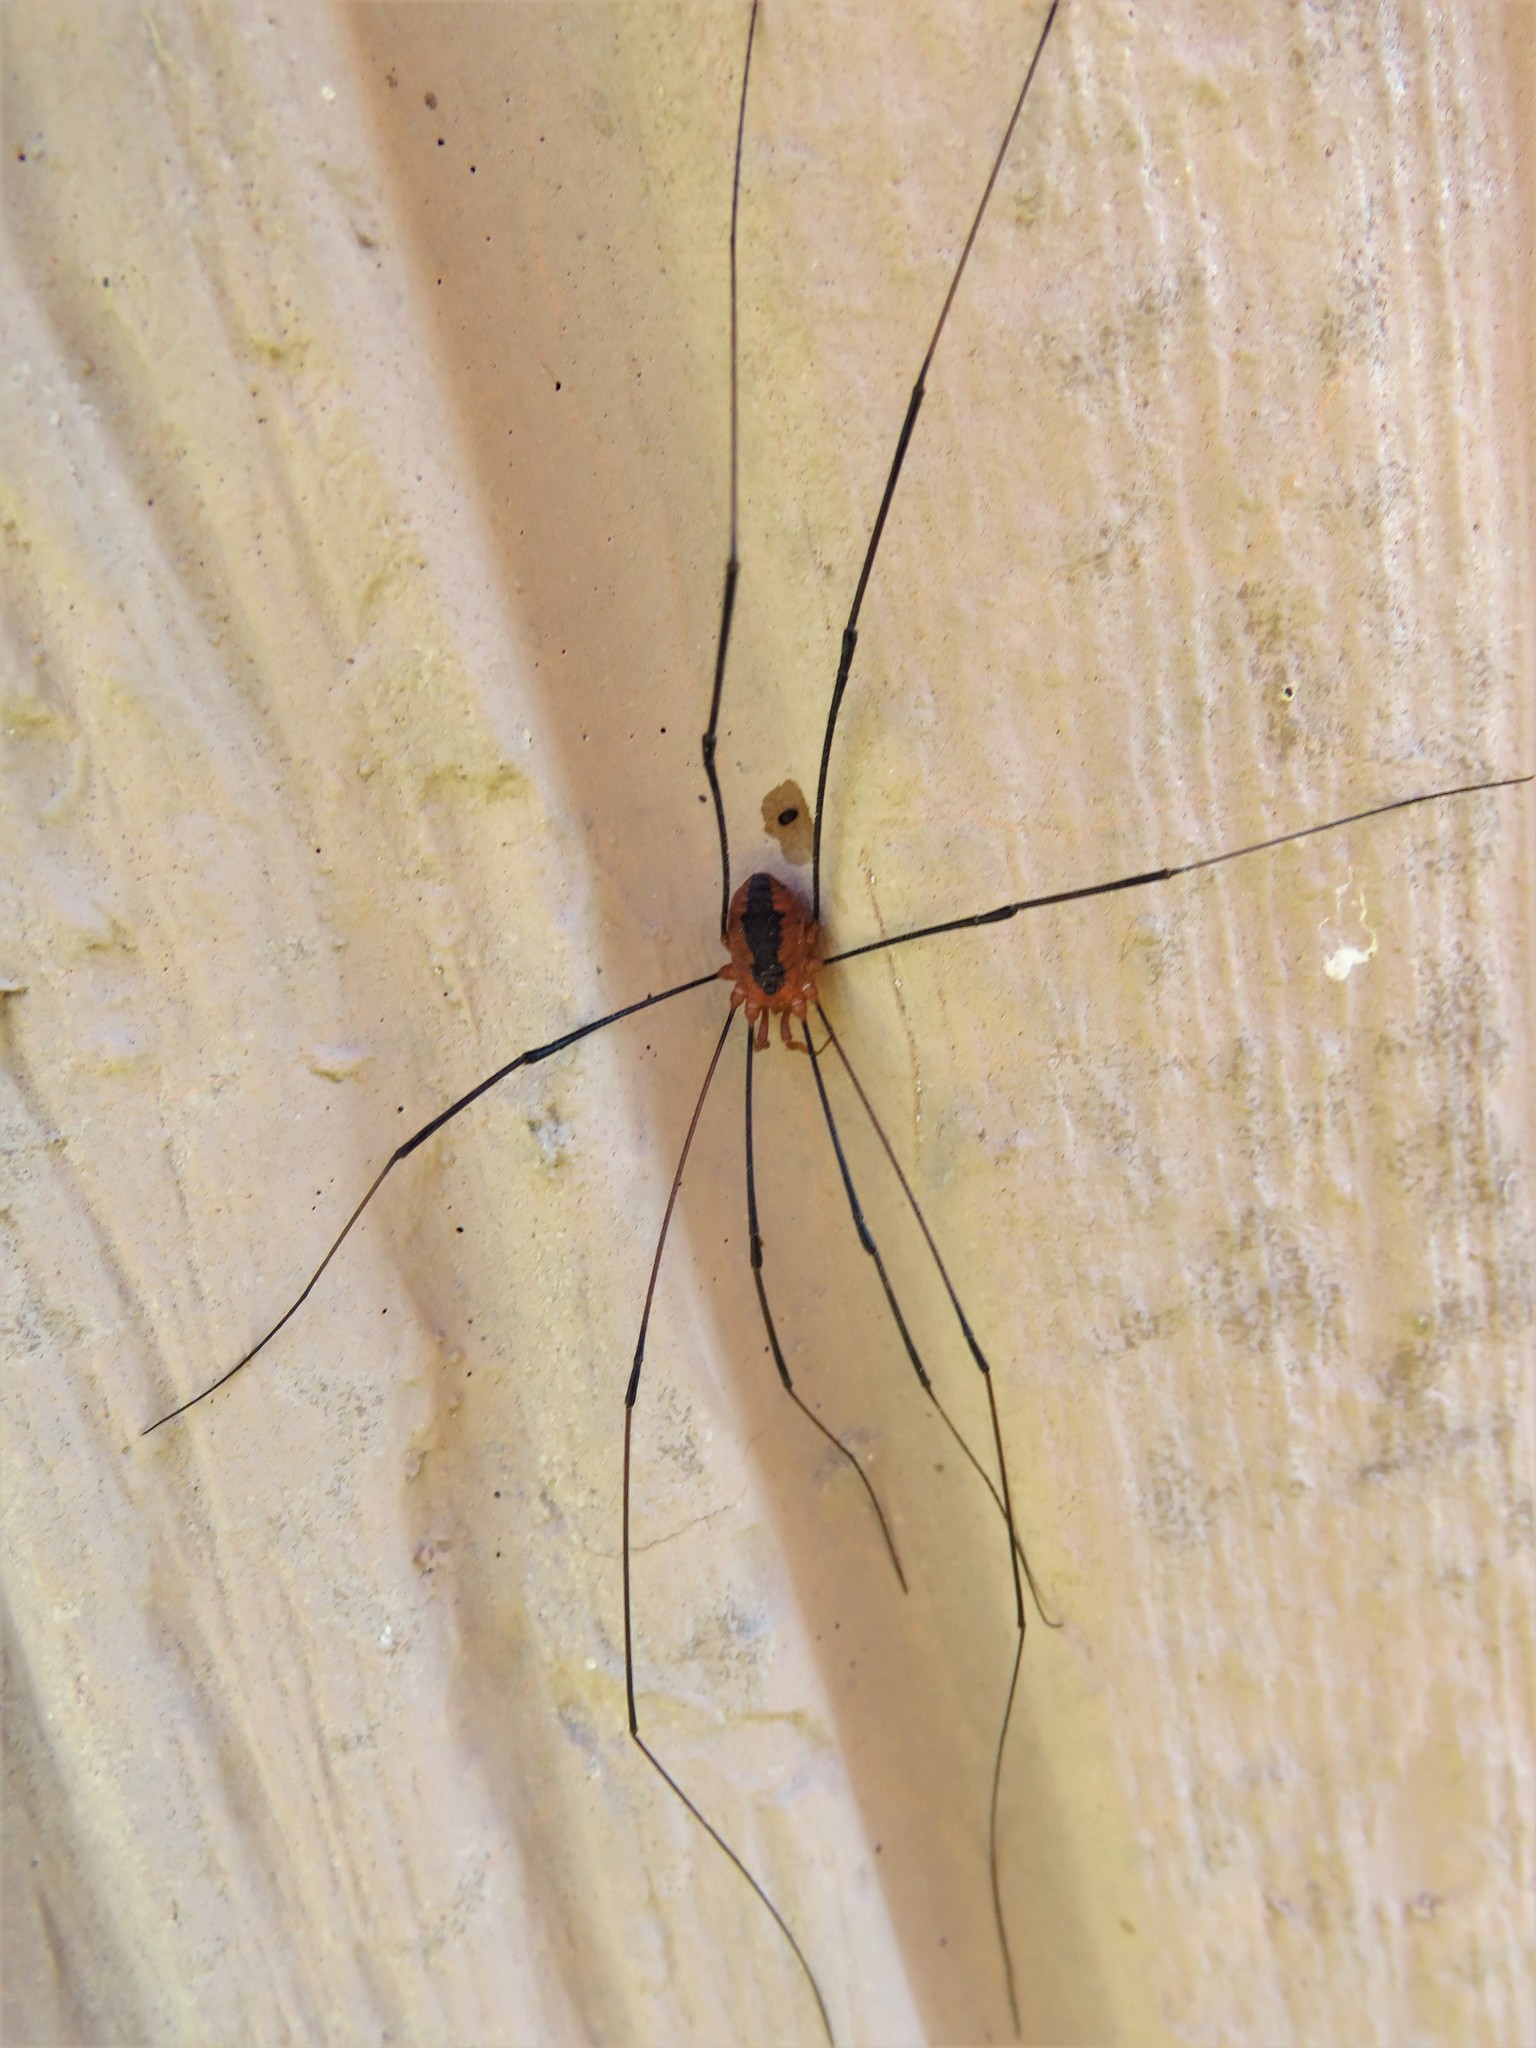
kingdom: Animalia
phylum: Arthropoda
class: Arachnida
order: Opiliones
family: Sclerosomatidae
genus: Leiobunum
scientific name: Leiobunum vittatum
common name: Eastern harvestman
